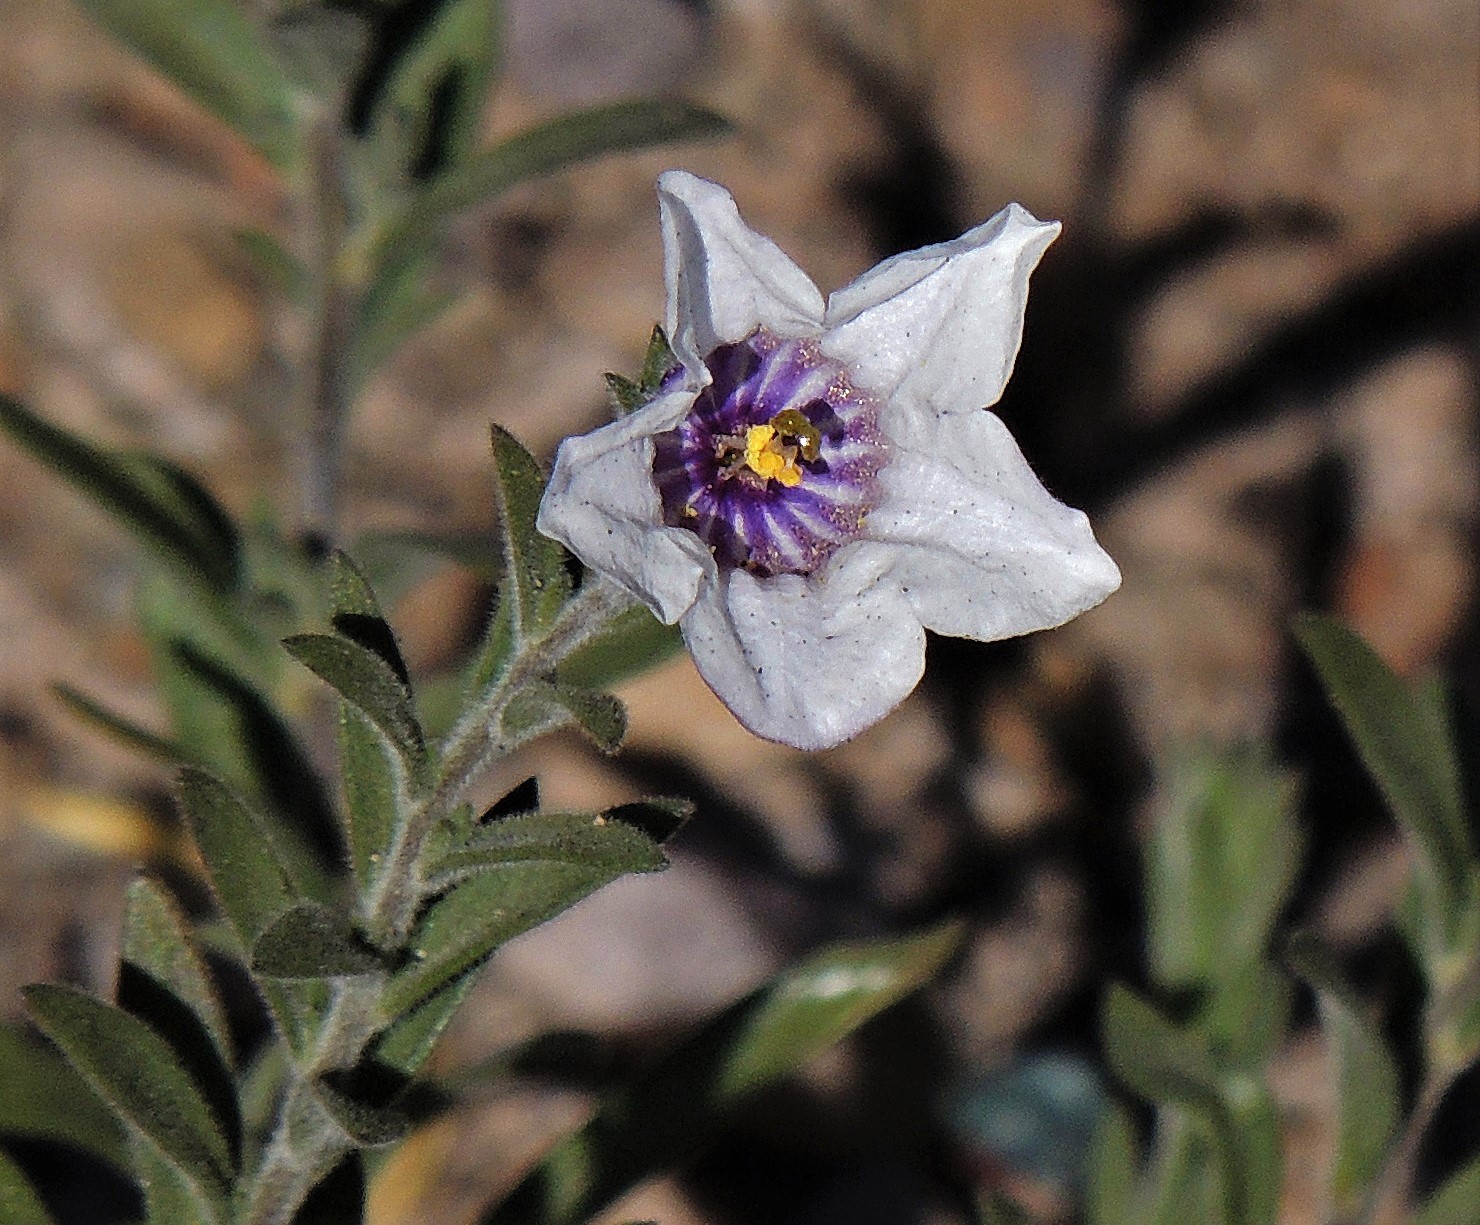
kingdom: Plantae
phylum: Tracheophyta
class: Magnoliopsida
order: Solanales
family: Solanaceae
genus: Nierembergia
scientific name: Nierembergia pulchella
